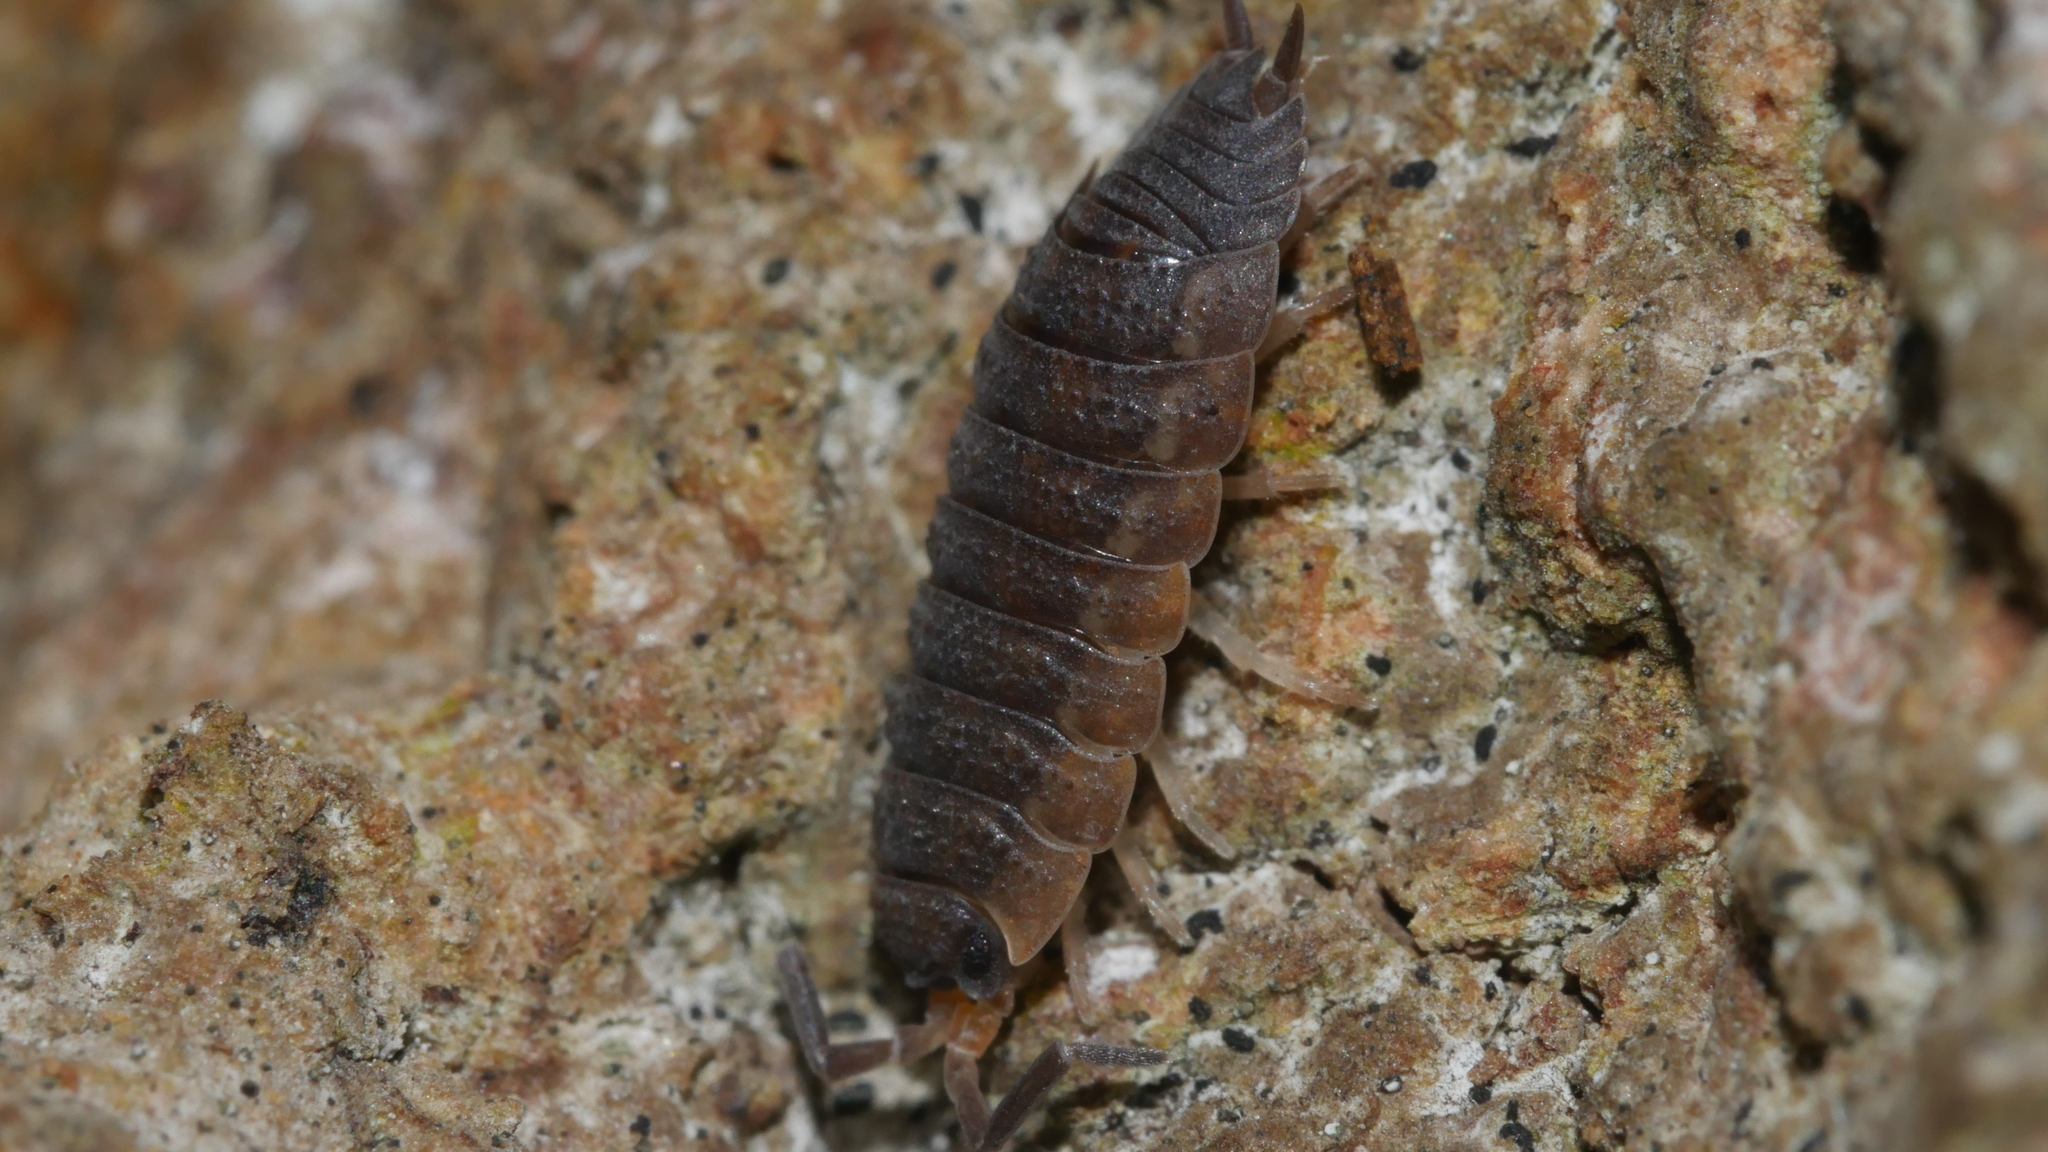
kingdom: Animalia
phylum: Arthropoda
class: Malacostraca
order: Isopoda
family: Porcellionidae
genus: Porcellio
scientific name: Porcellio scaber
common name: Common rough woodlouse
